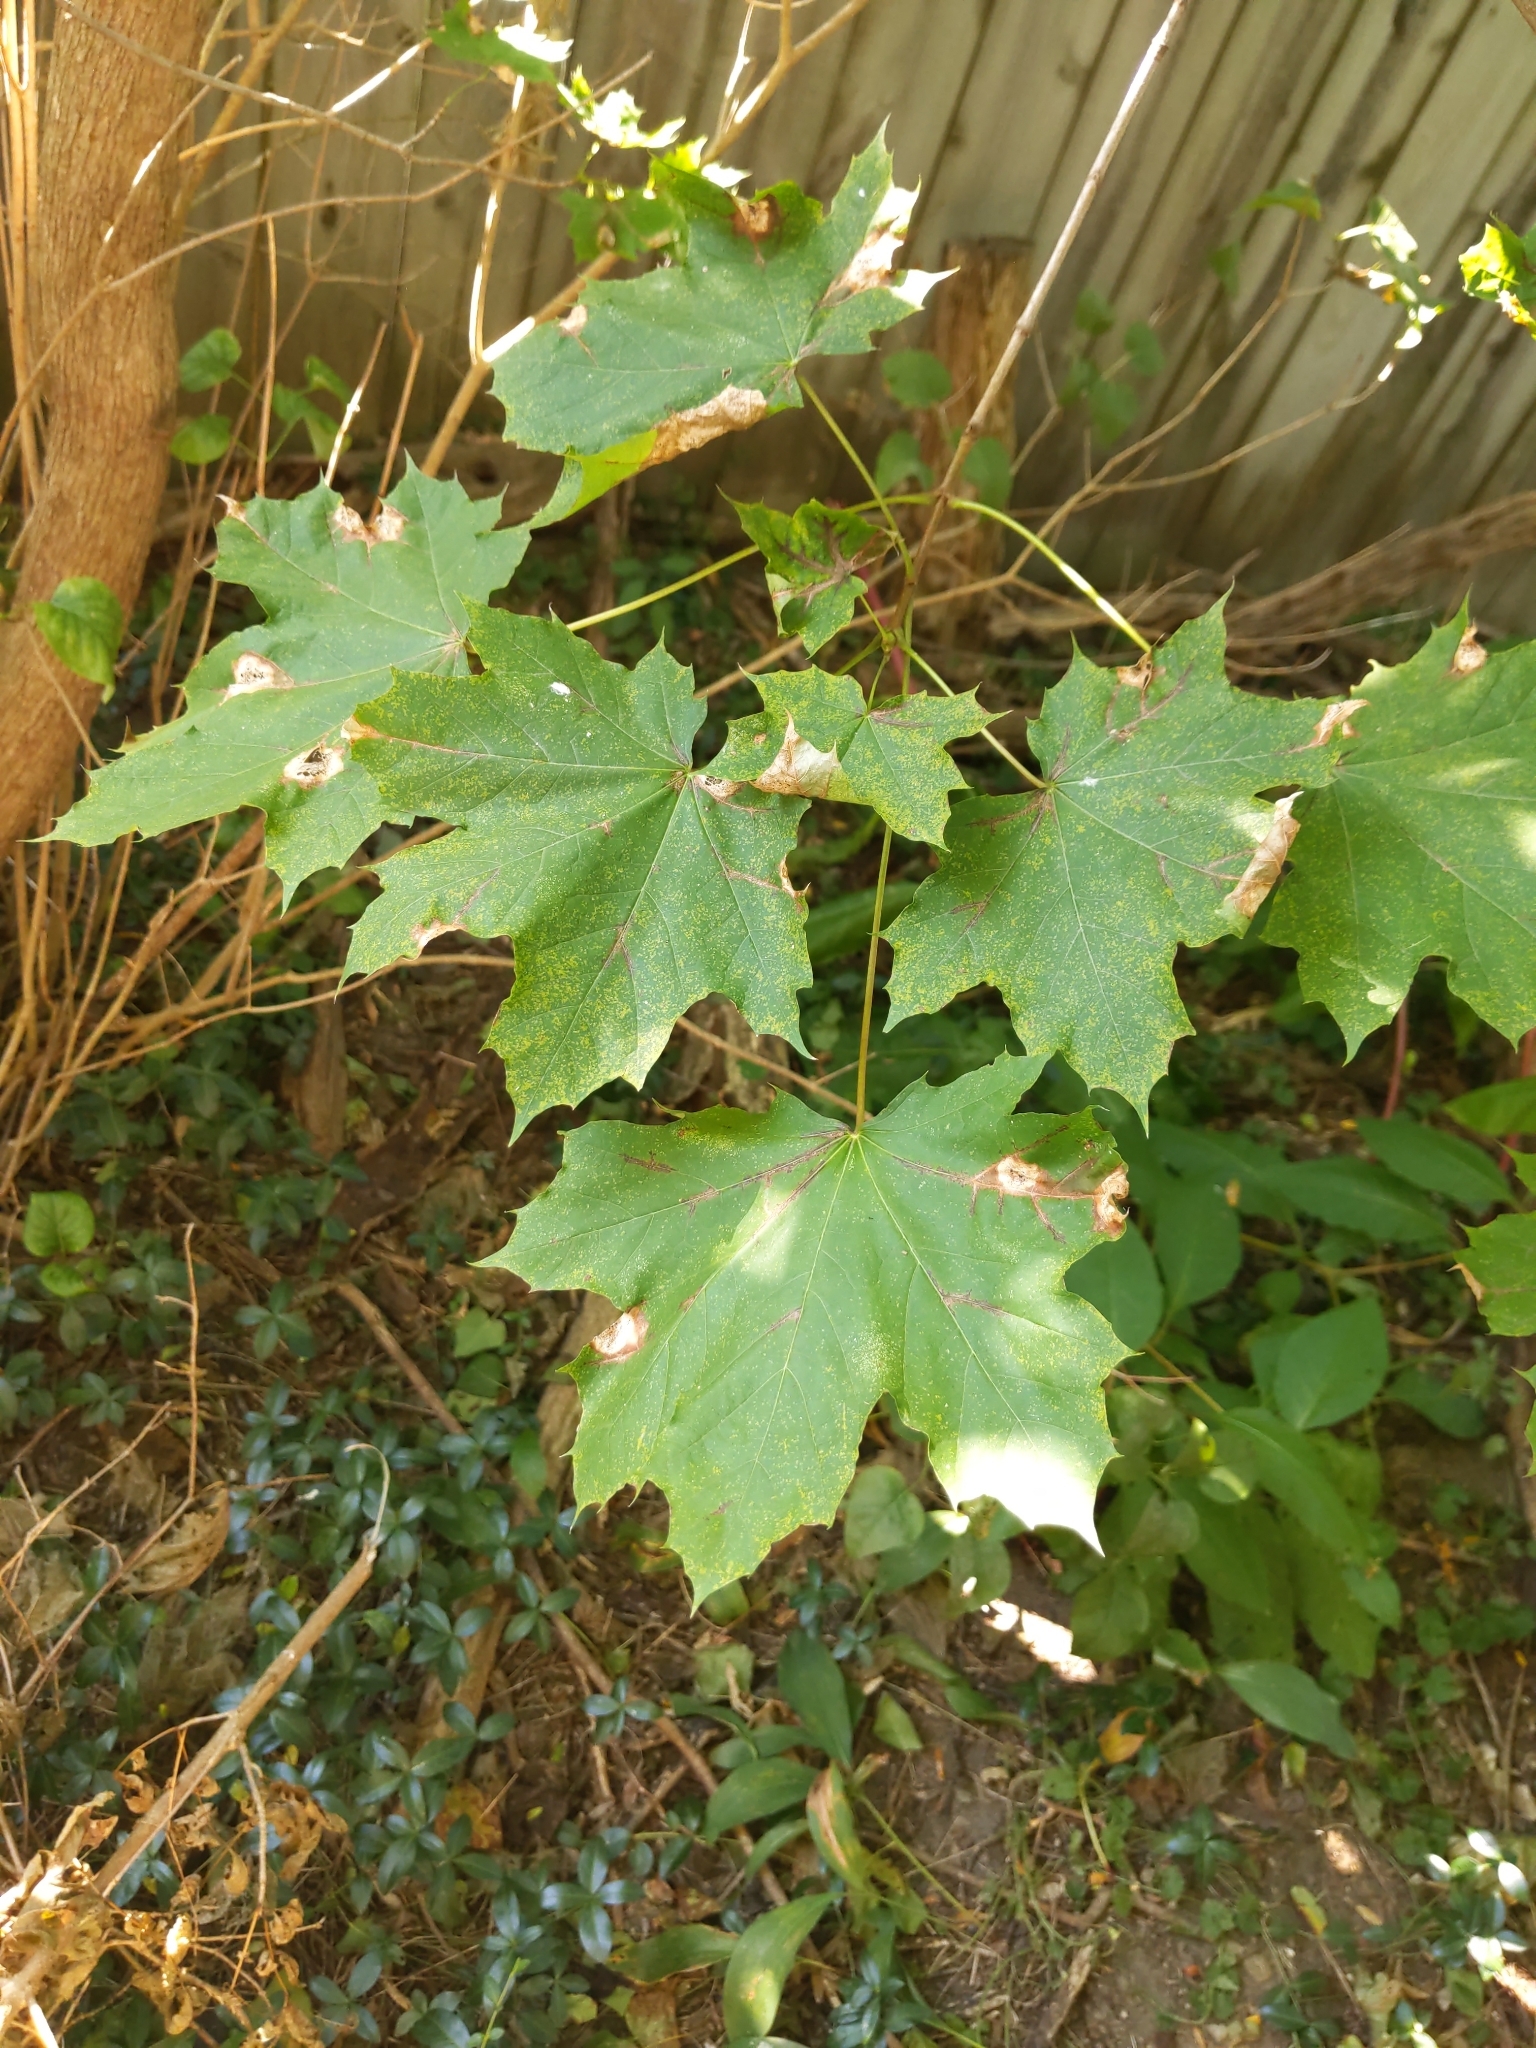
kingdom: Plantae
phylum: Tracheophyta
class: Magnoliopsida
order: Sapindales
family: Sapindaceae
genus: Acer
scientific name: Acer platanoides
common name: Norway maple
